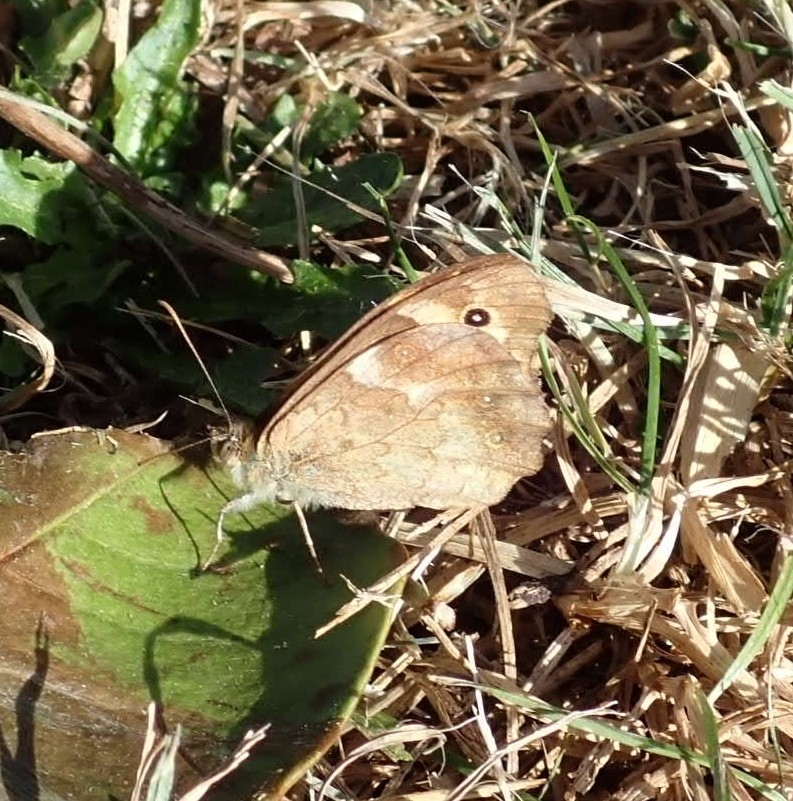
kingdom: Animalia
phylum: Arthropoda
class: Insecta
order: Lepidoptera
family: Nymphalidae
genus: Pararge
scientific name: Pararge aegeria
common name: Speckled wood
